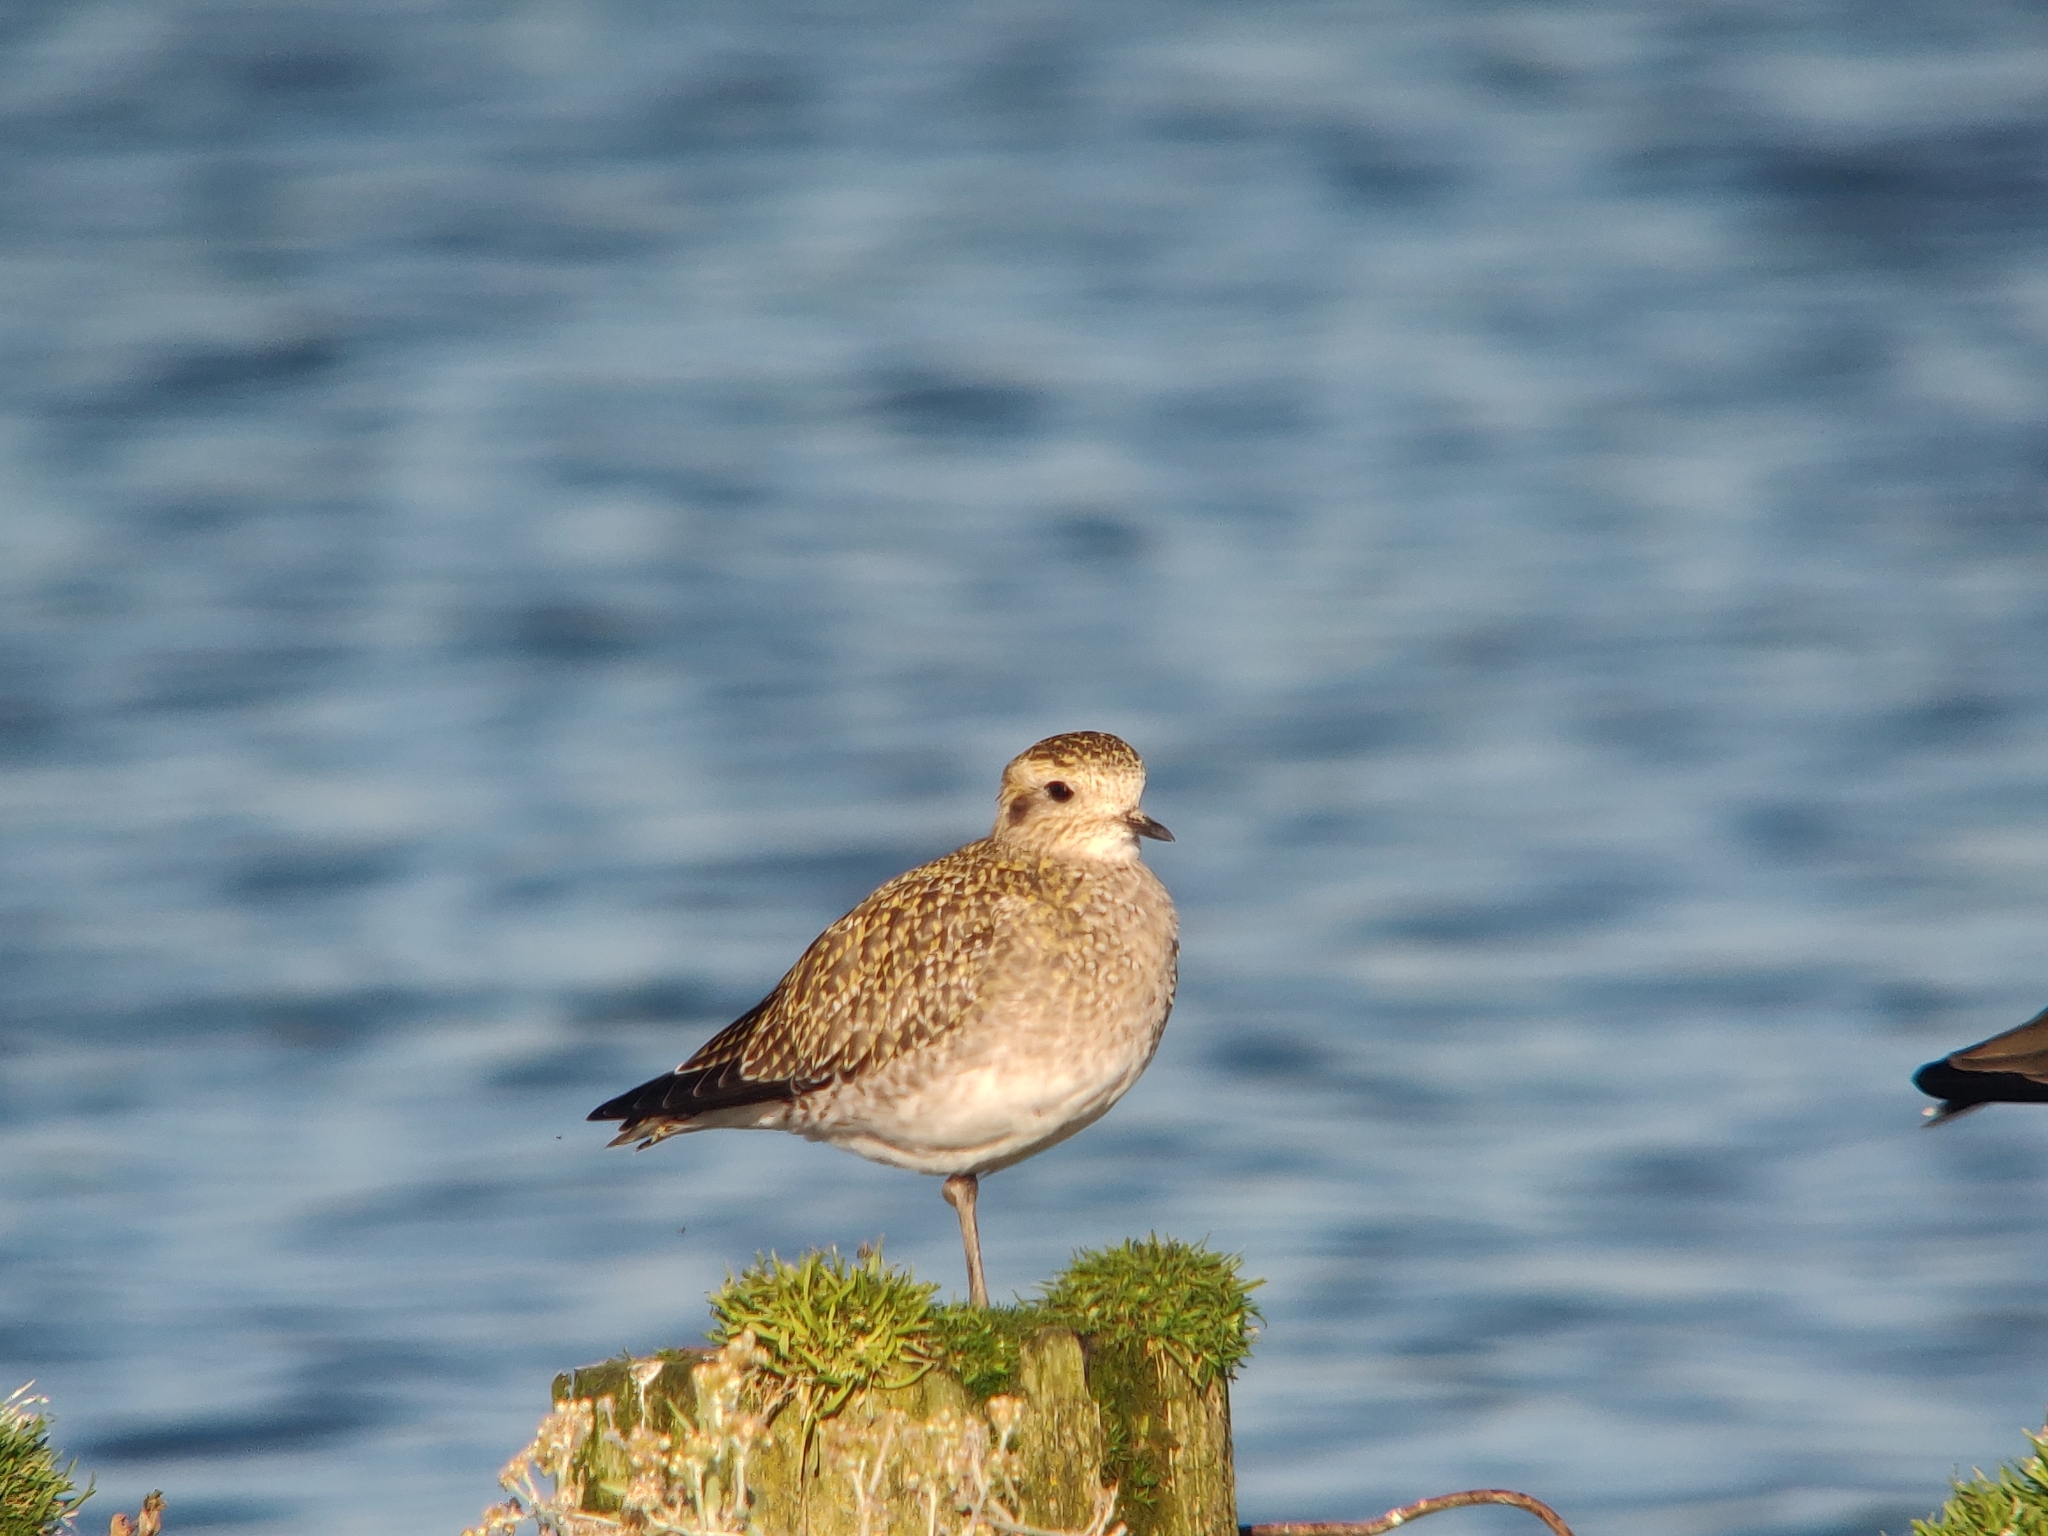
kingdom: Animalia
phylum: Chordata
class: Aves
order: Charadriiformes
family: Charadriidae
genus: Pluvialis
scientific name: Pluvialis apricaria
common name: European golden plover
